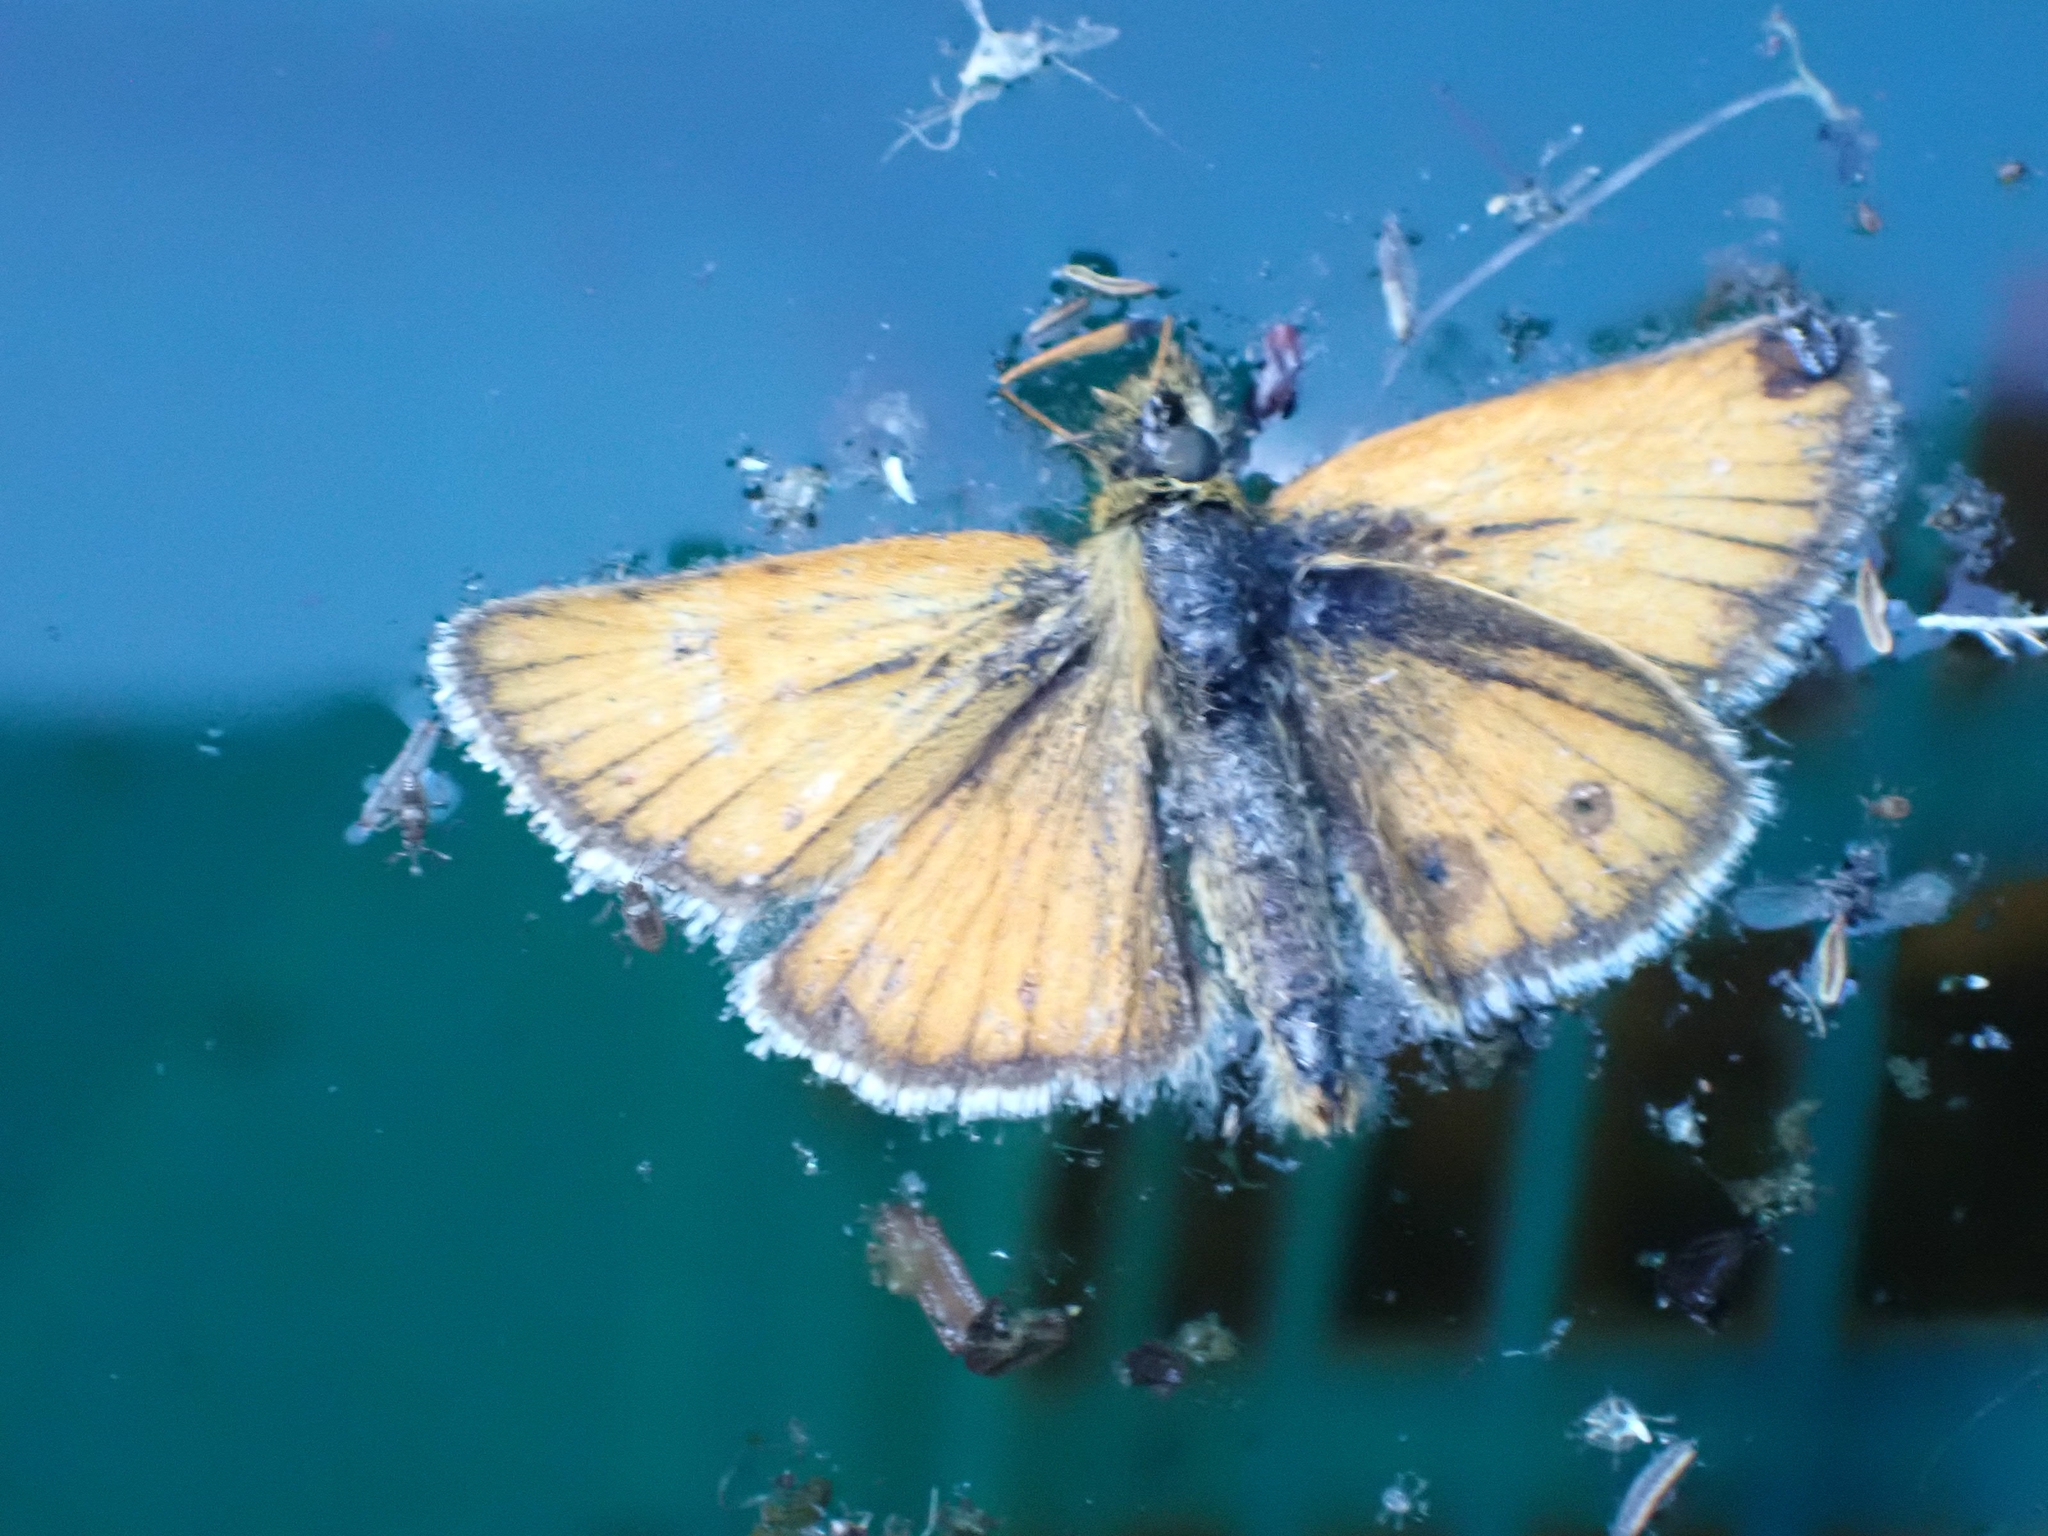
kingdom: Animalia
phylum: Arthropoda
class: Insecta
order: Lepidoptera
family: Hesperiidae
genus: Thymelicus
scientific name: Thymelicus lineola
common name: Essex skipper
